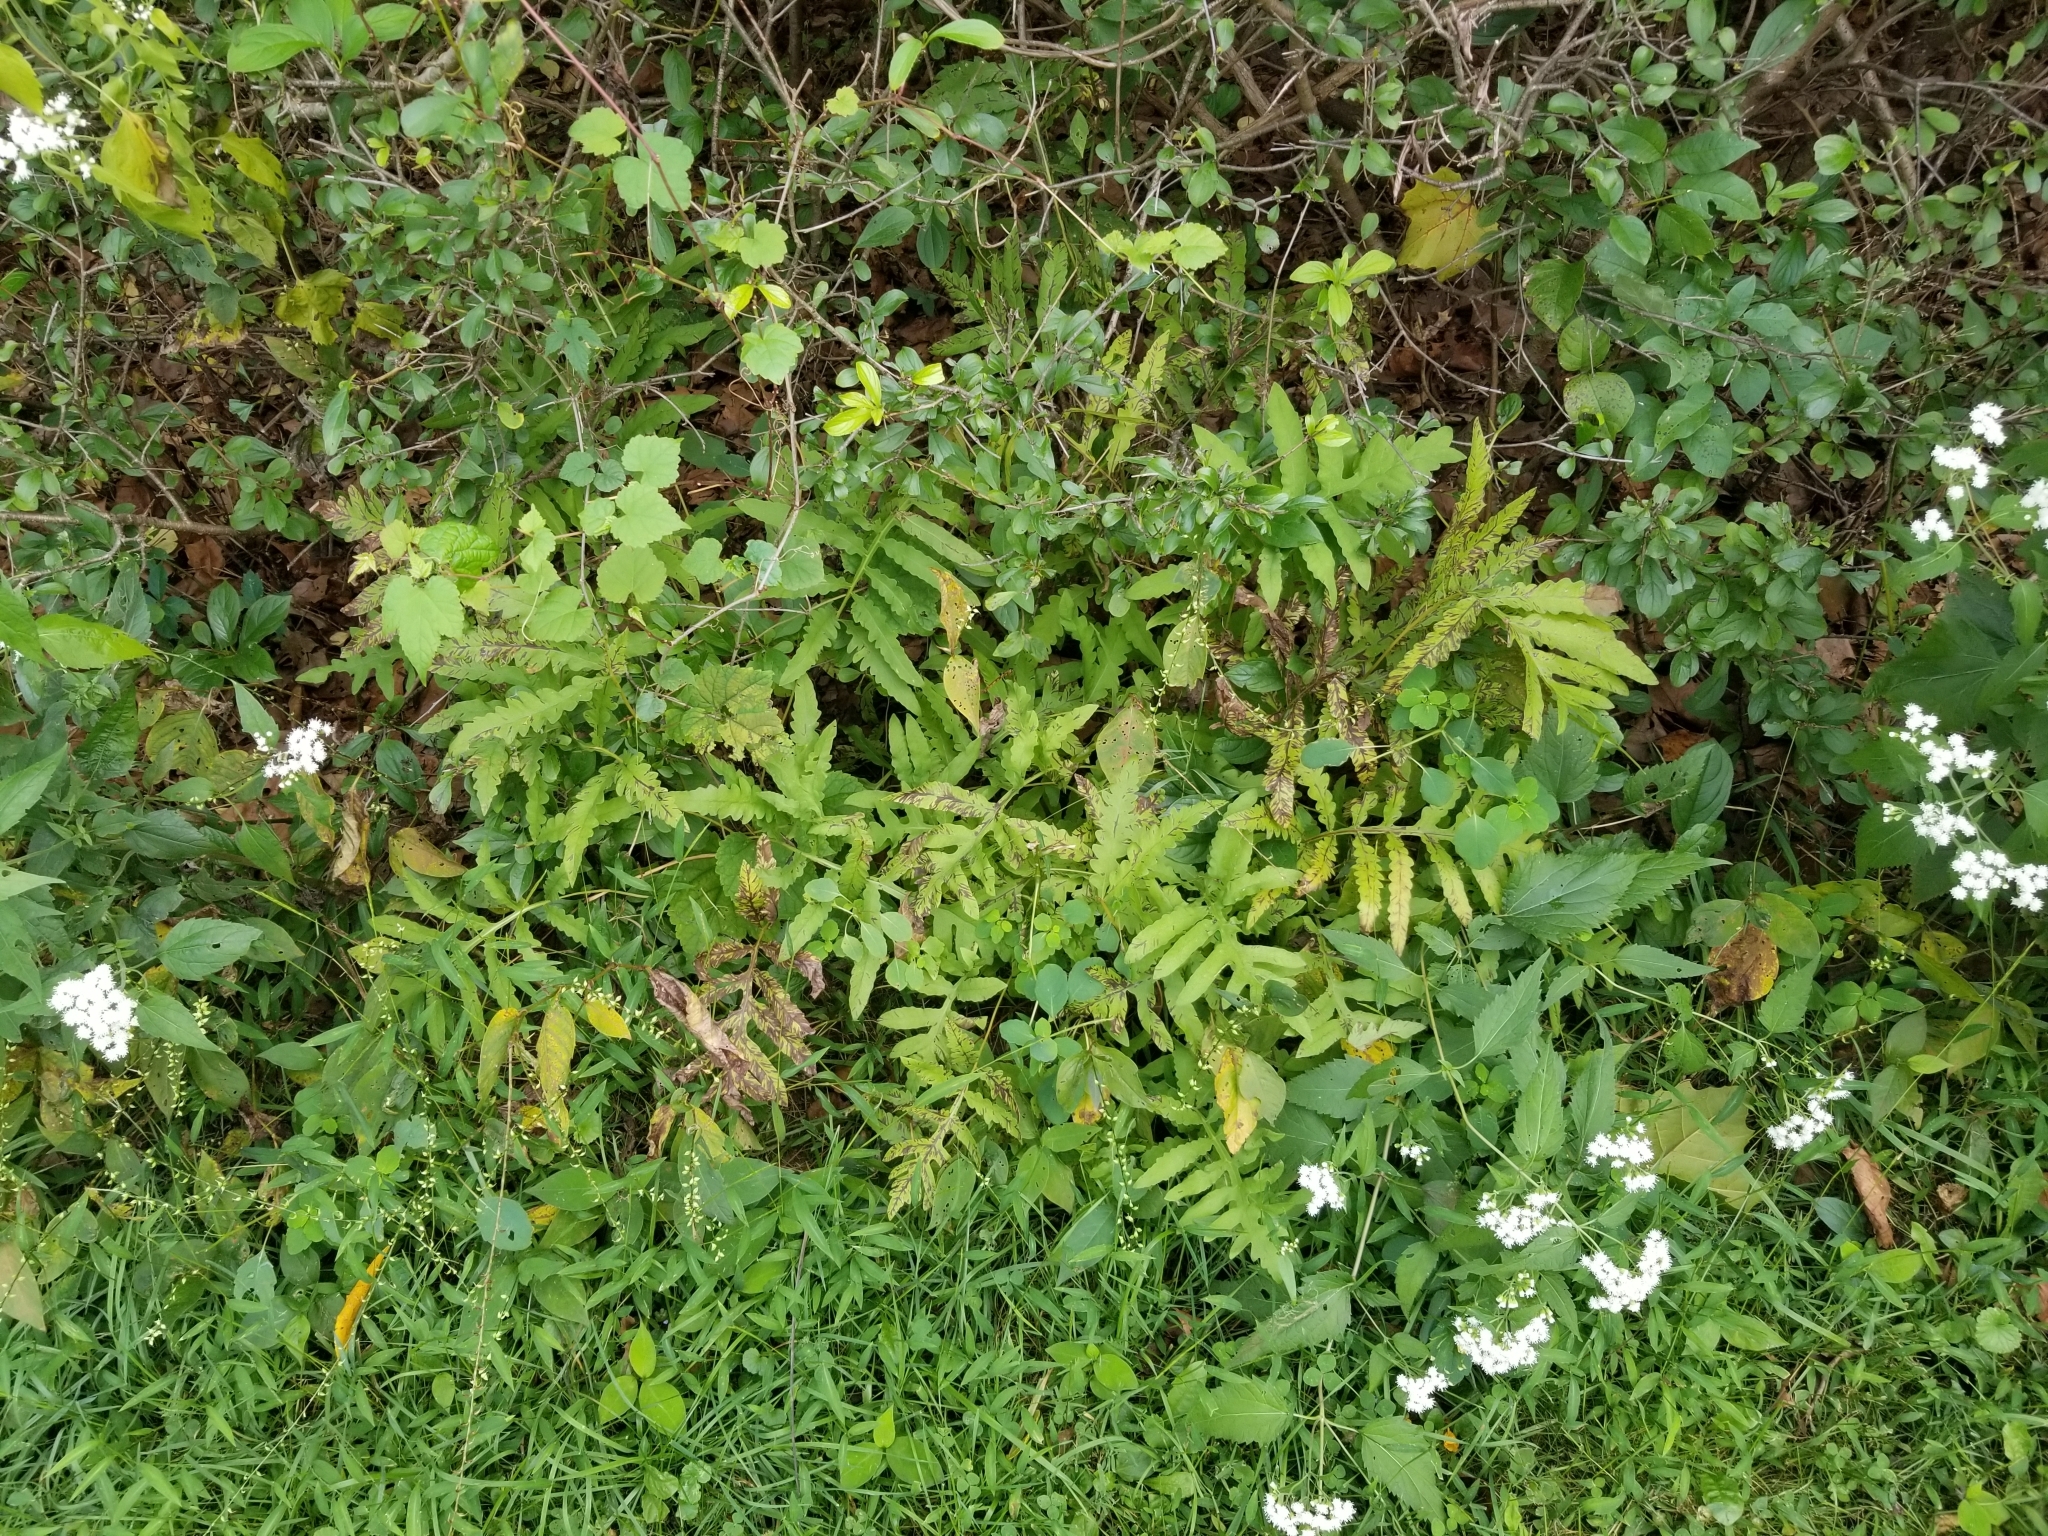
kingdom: Plantae
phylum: Tracheophyta
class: Polypodiopsida
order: Polypodiales
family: Onocleaceae
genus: Onoclea
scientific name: Onoclea sensibilis
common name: Sensitive fern
